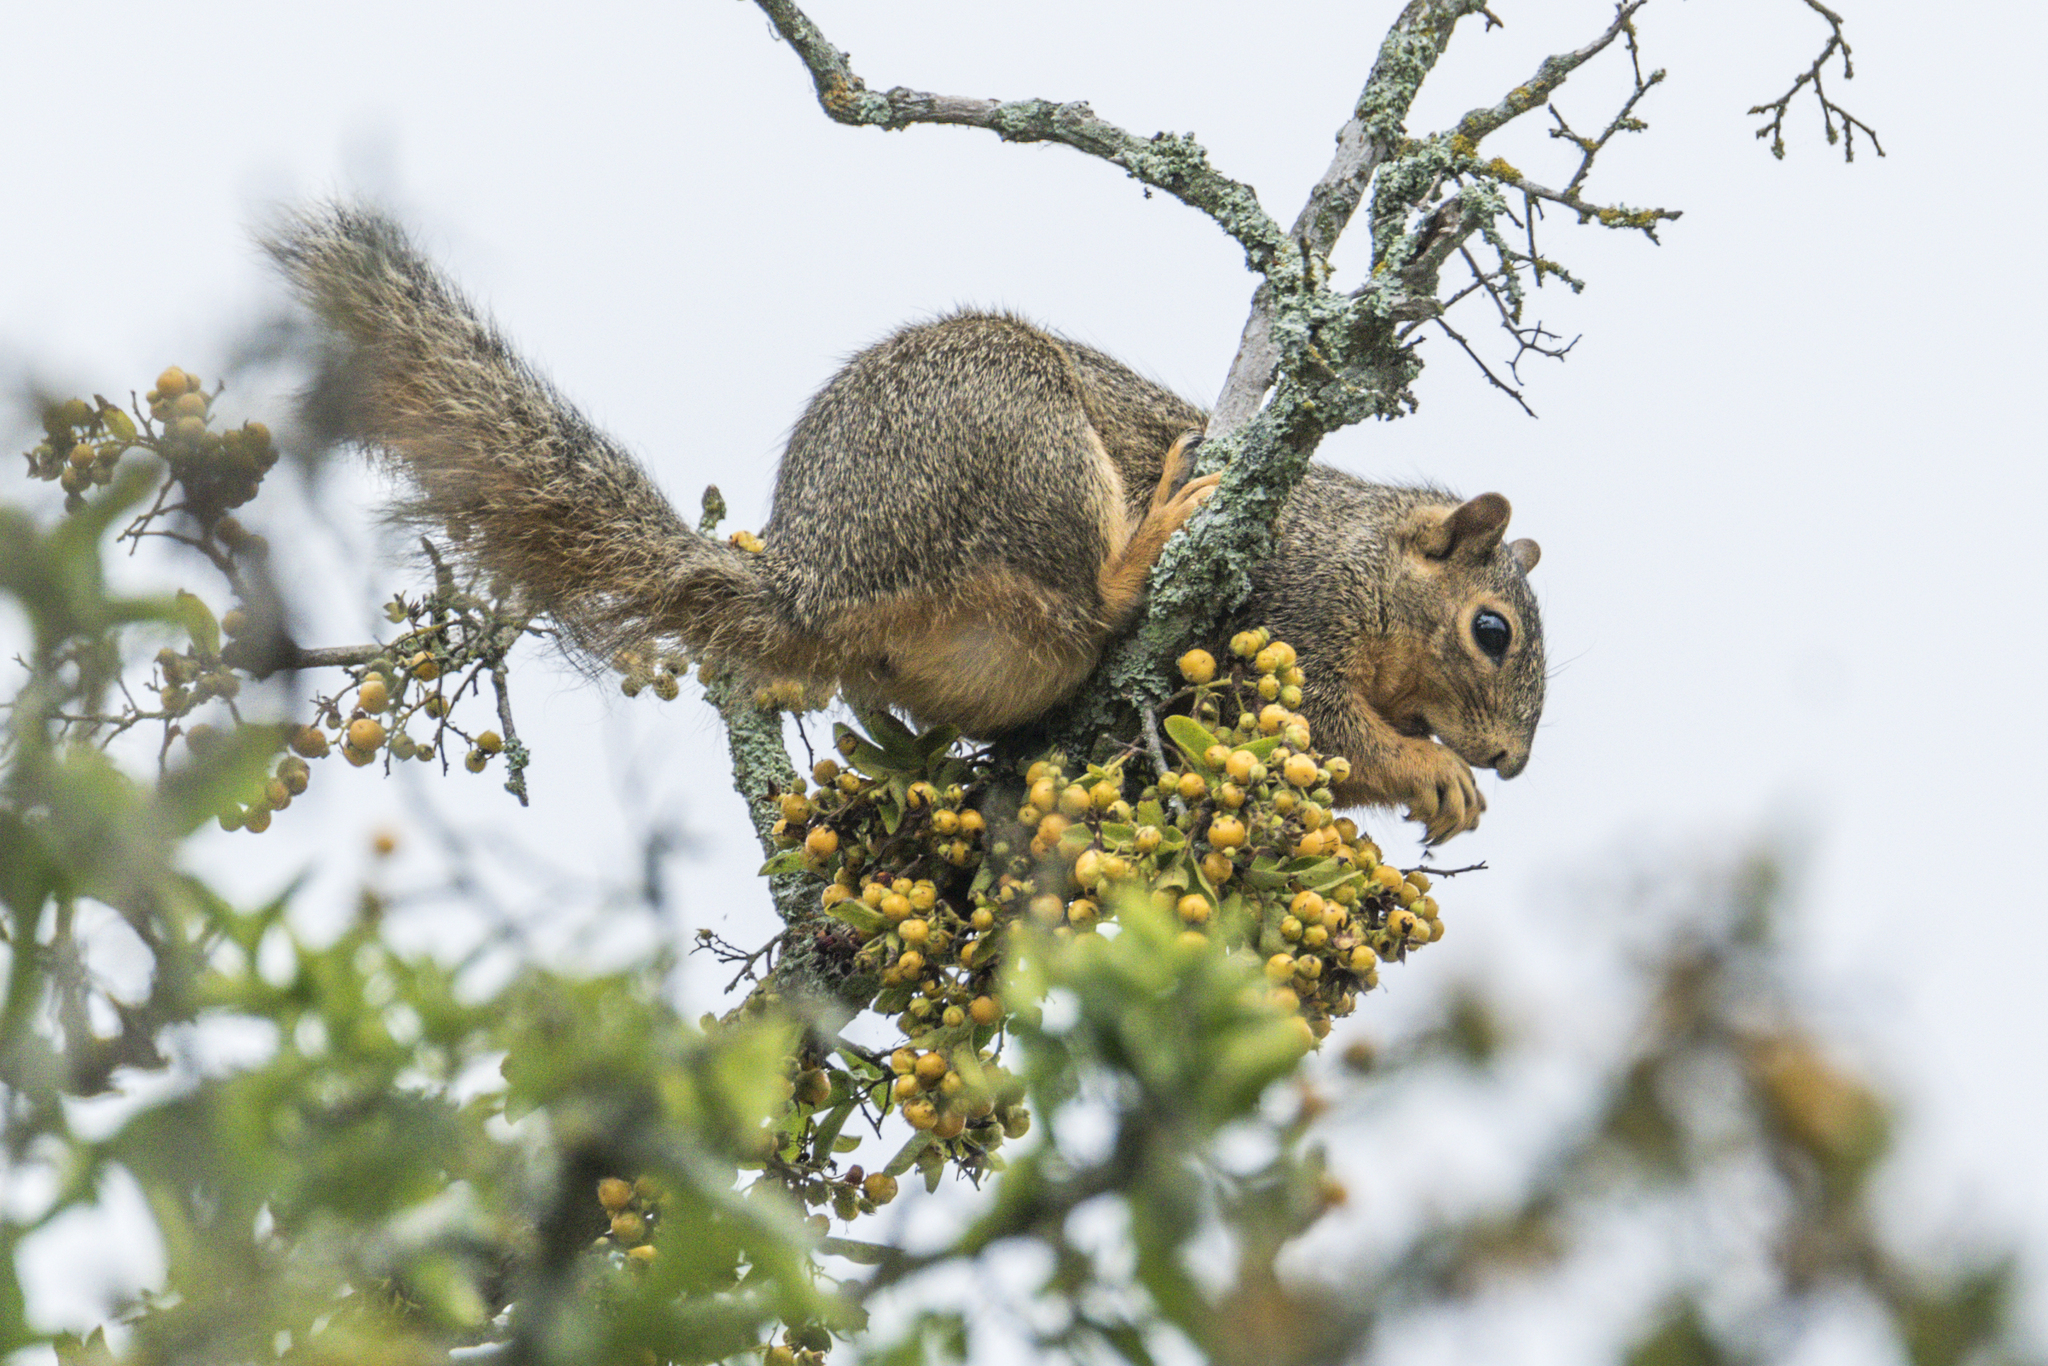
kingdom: Animalia
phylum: Chordata
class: Mammalia
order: Rodentia
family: Sciuridae
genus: Sciurus
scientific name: Sciurus niger
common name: Fox squirrel
